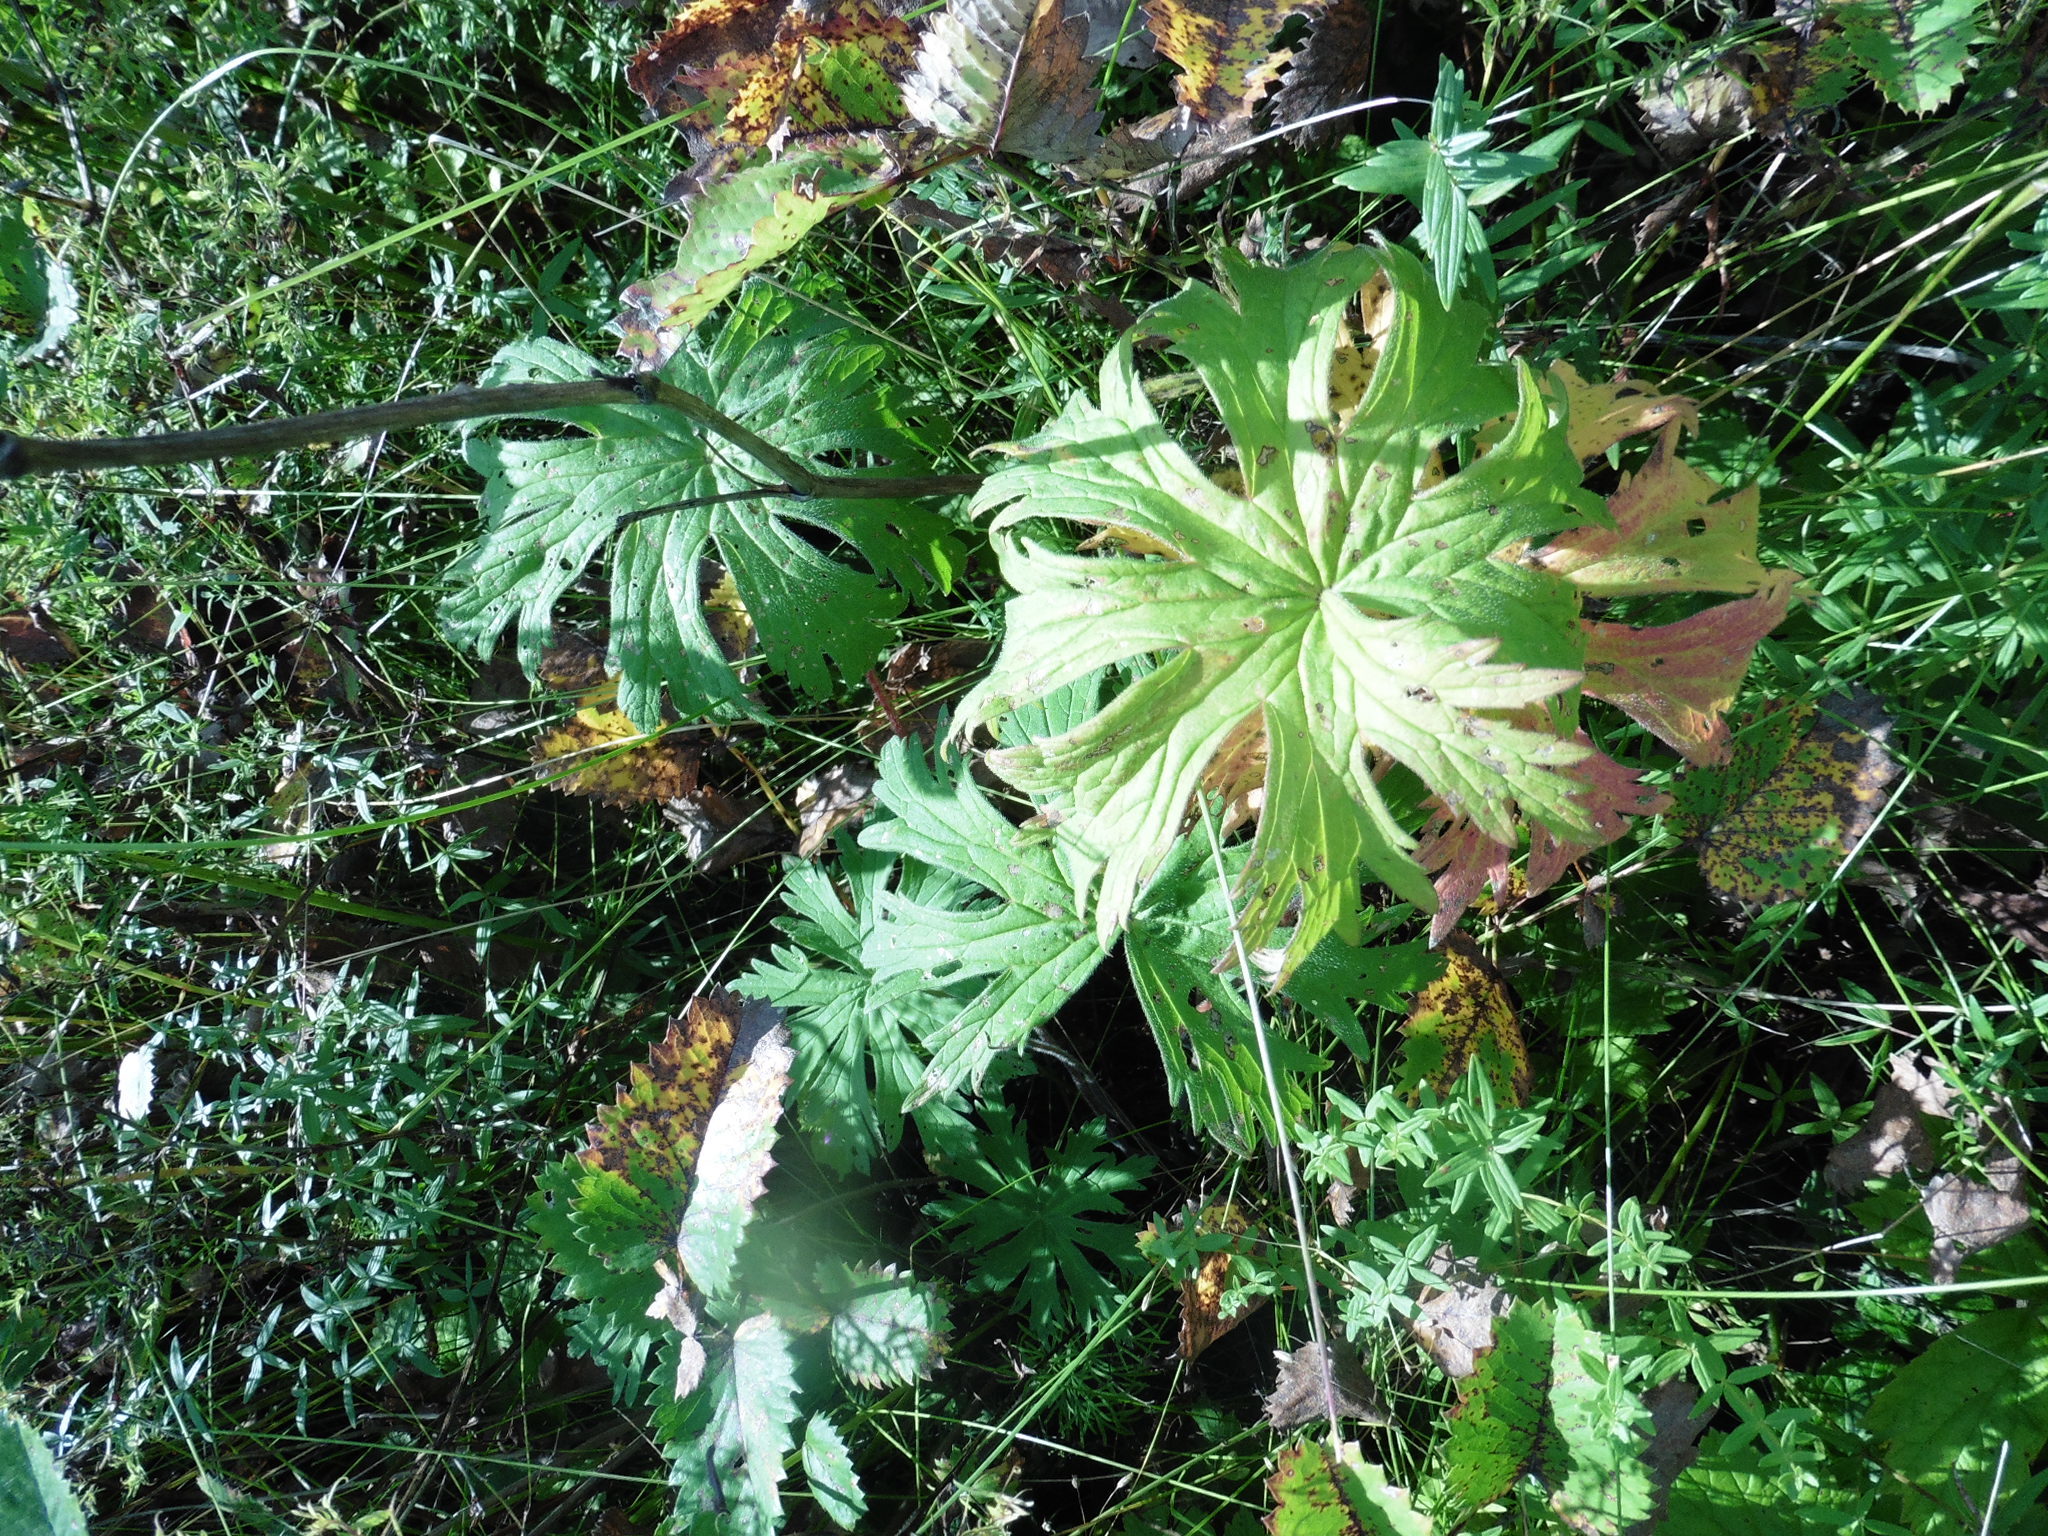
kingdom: Plantae
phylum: Tracheophyta
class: Magnoliopsida
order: Ranunculales
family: Ranunculaceae
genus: Trollius
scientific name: Trollius europaeus
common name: European globeflower
